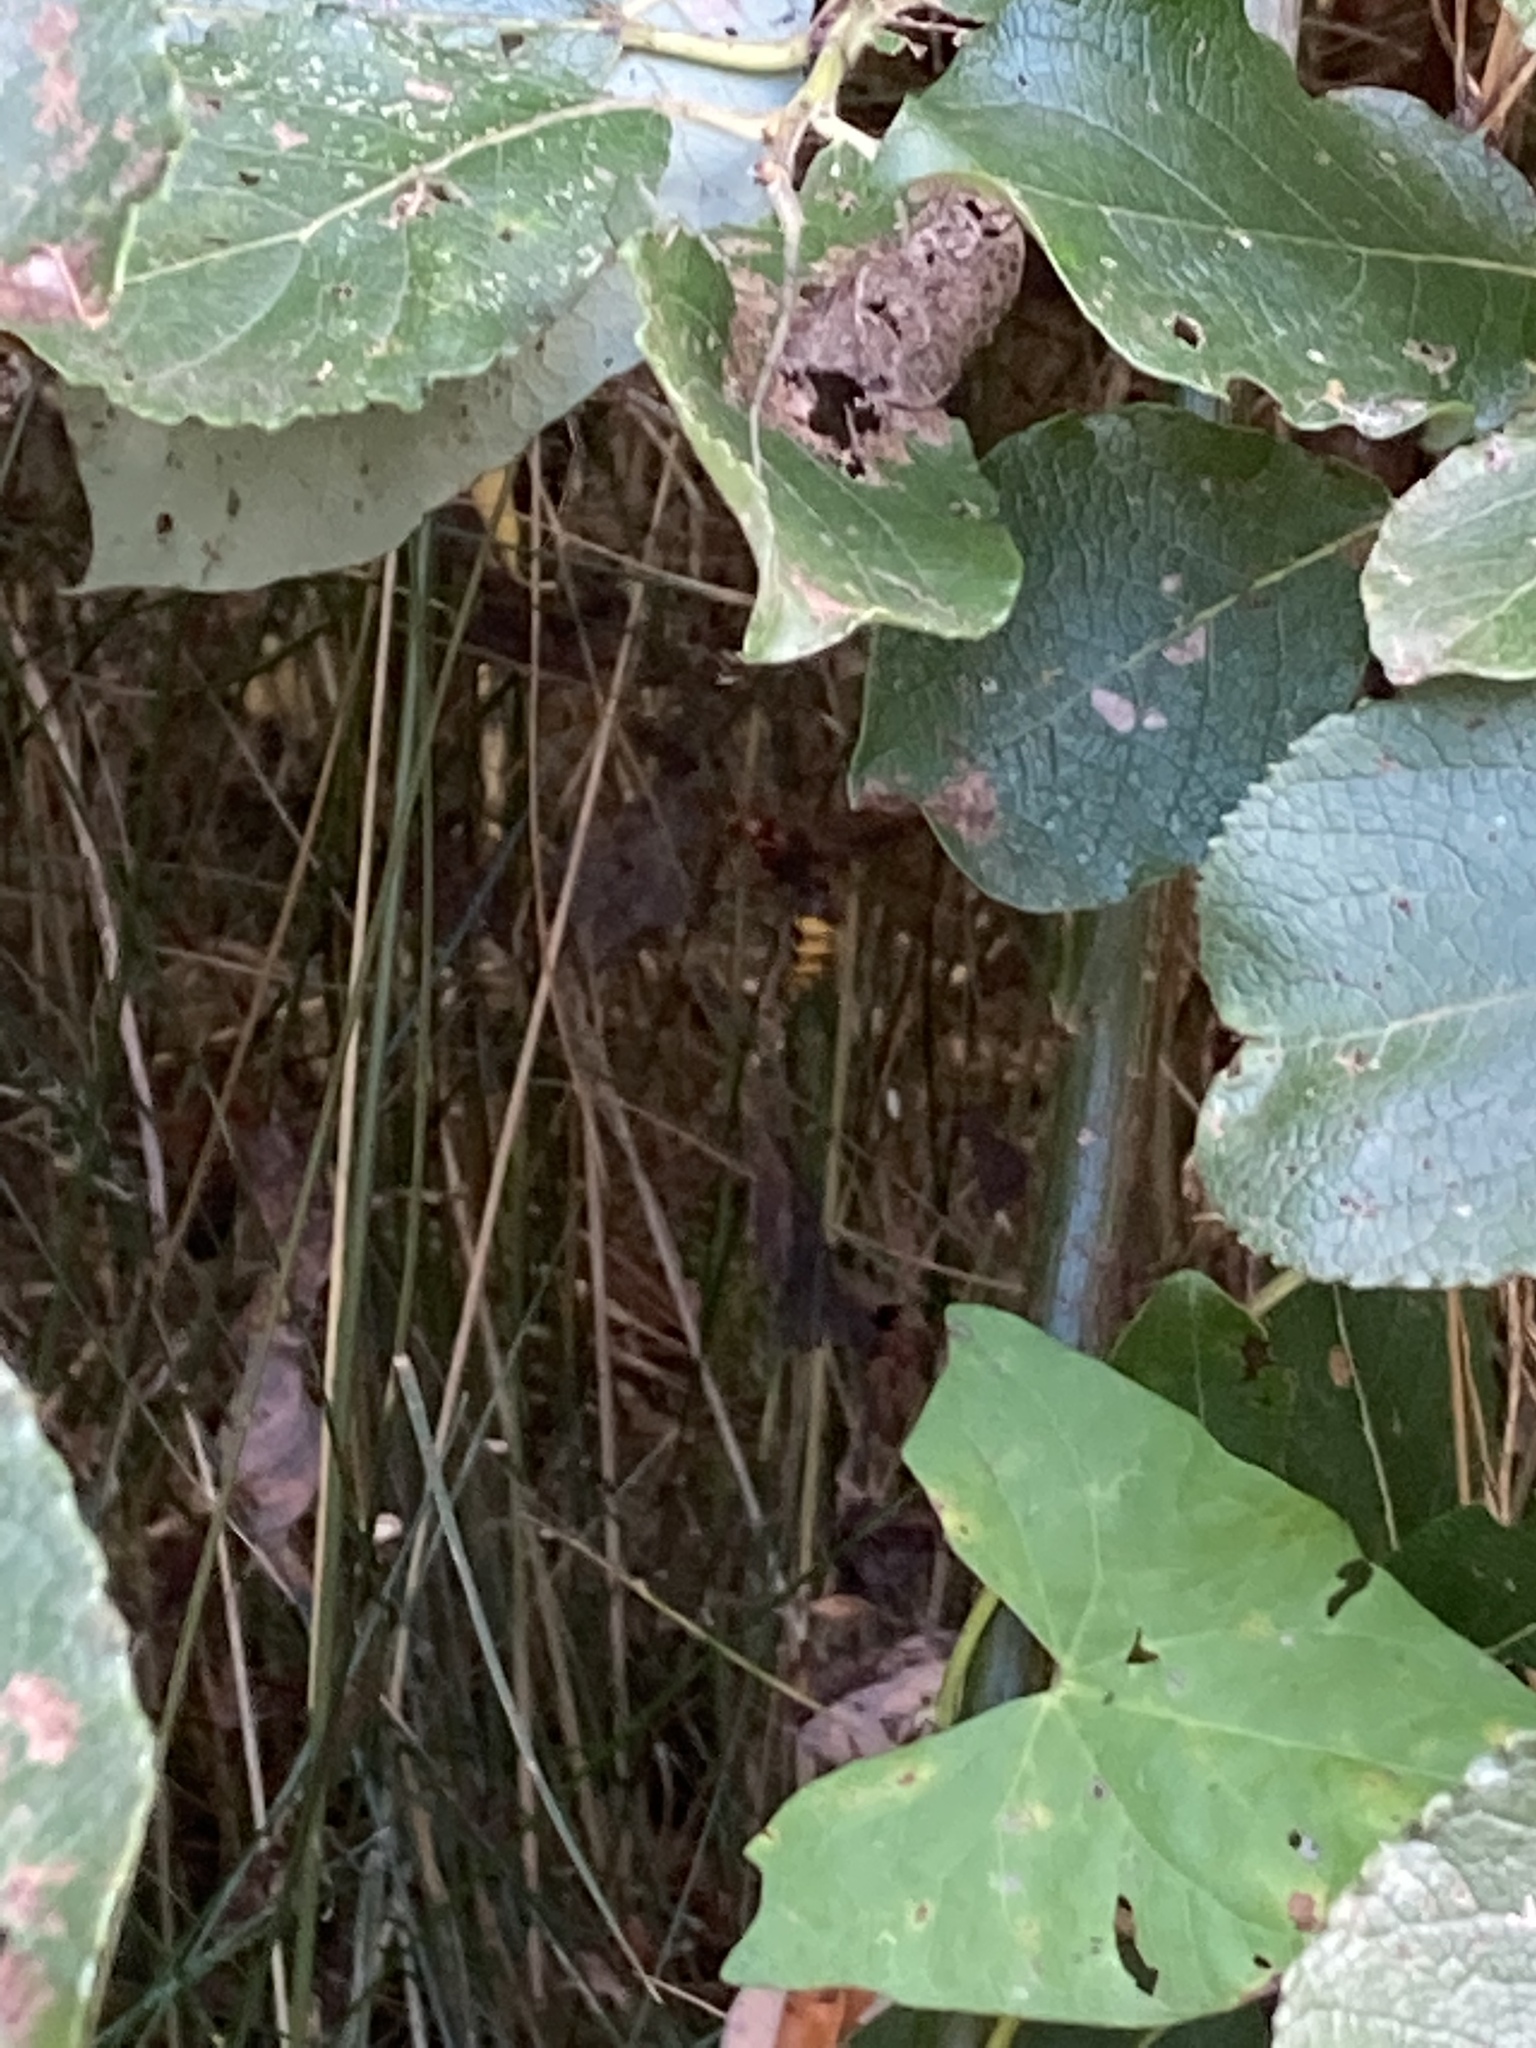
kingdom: Animalia
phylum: Arthropoda
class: Insecta
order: Hymenoptera
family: Vespidae
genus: Vespa
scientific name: Vespa velutina
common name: Asian hornet
